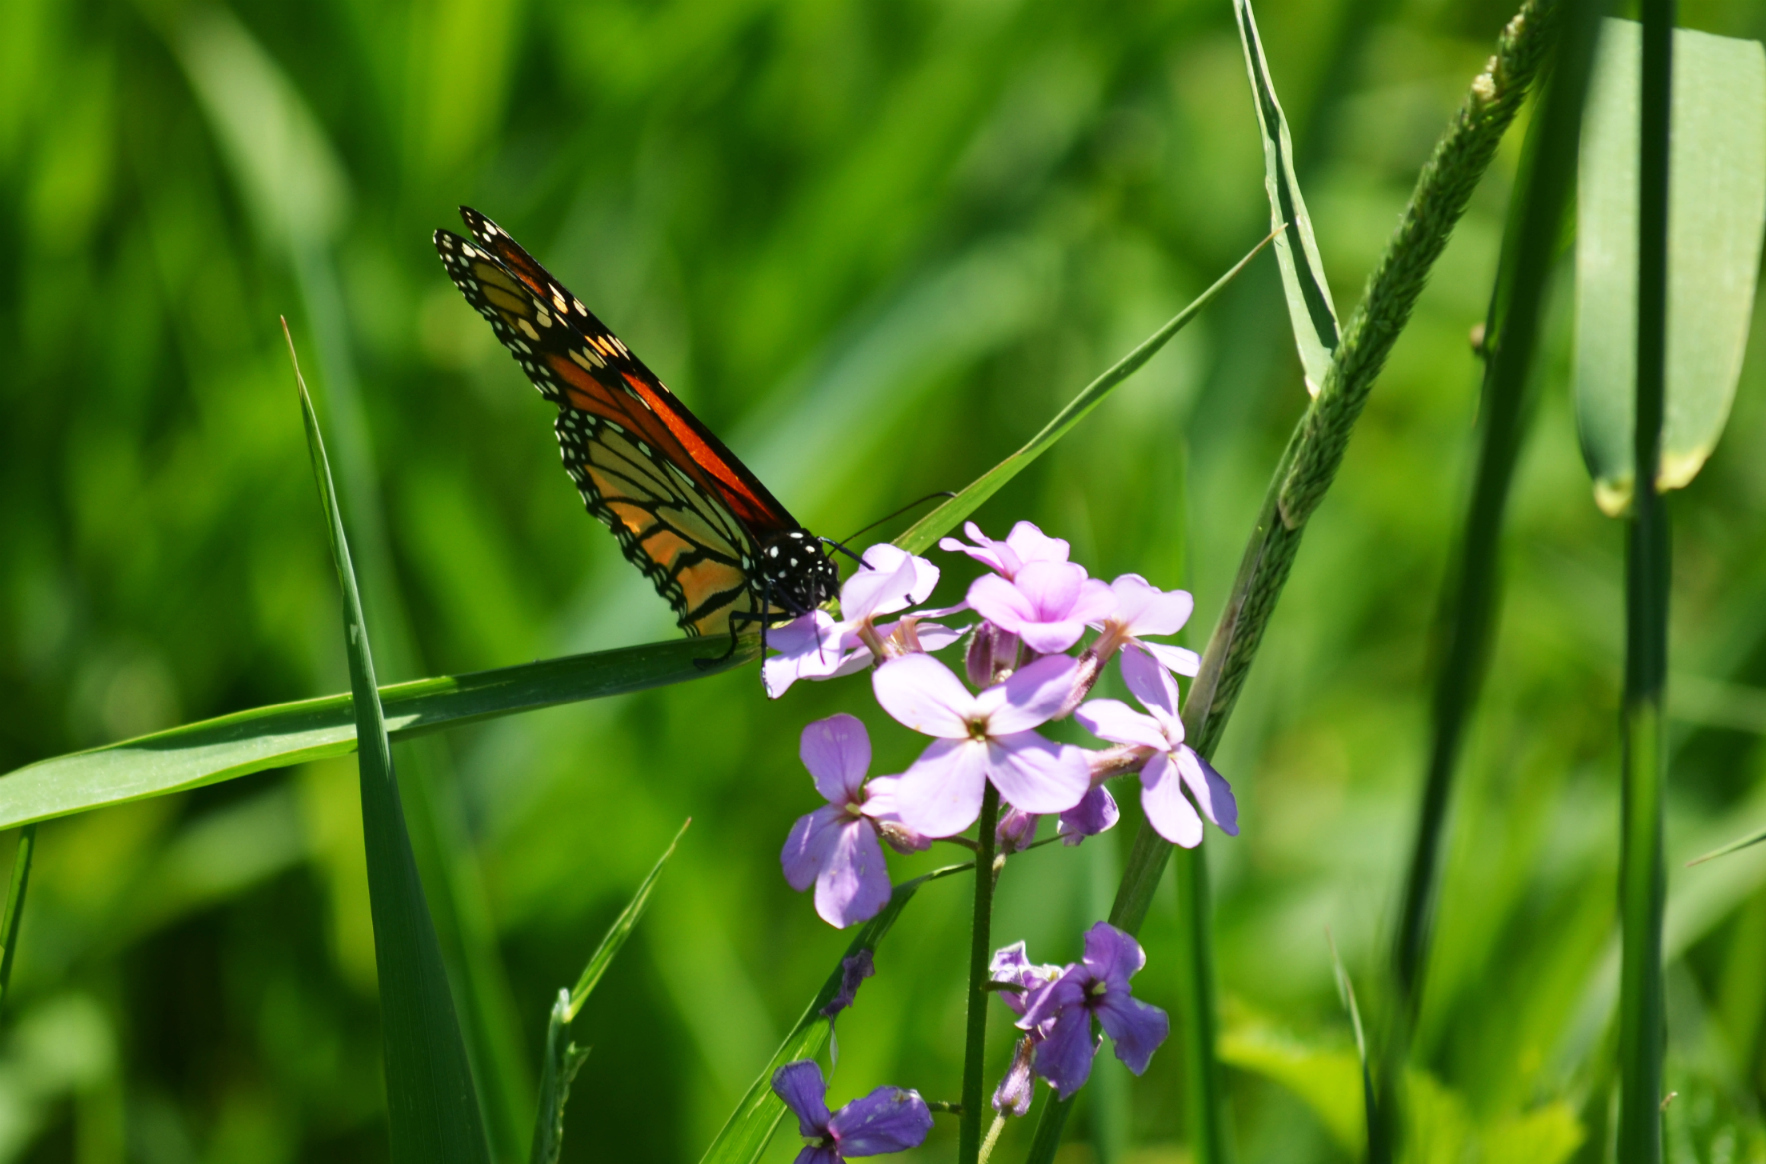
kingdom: Animalia
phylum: Arthropoda
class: Insecta
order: Lepidoptera
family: Nymphalidae
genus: Danaus
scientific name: Danaus plexippus
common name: Monarch
